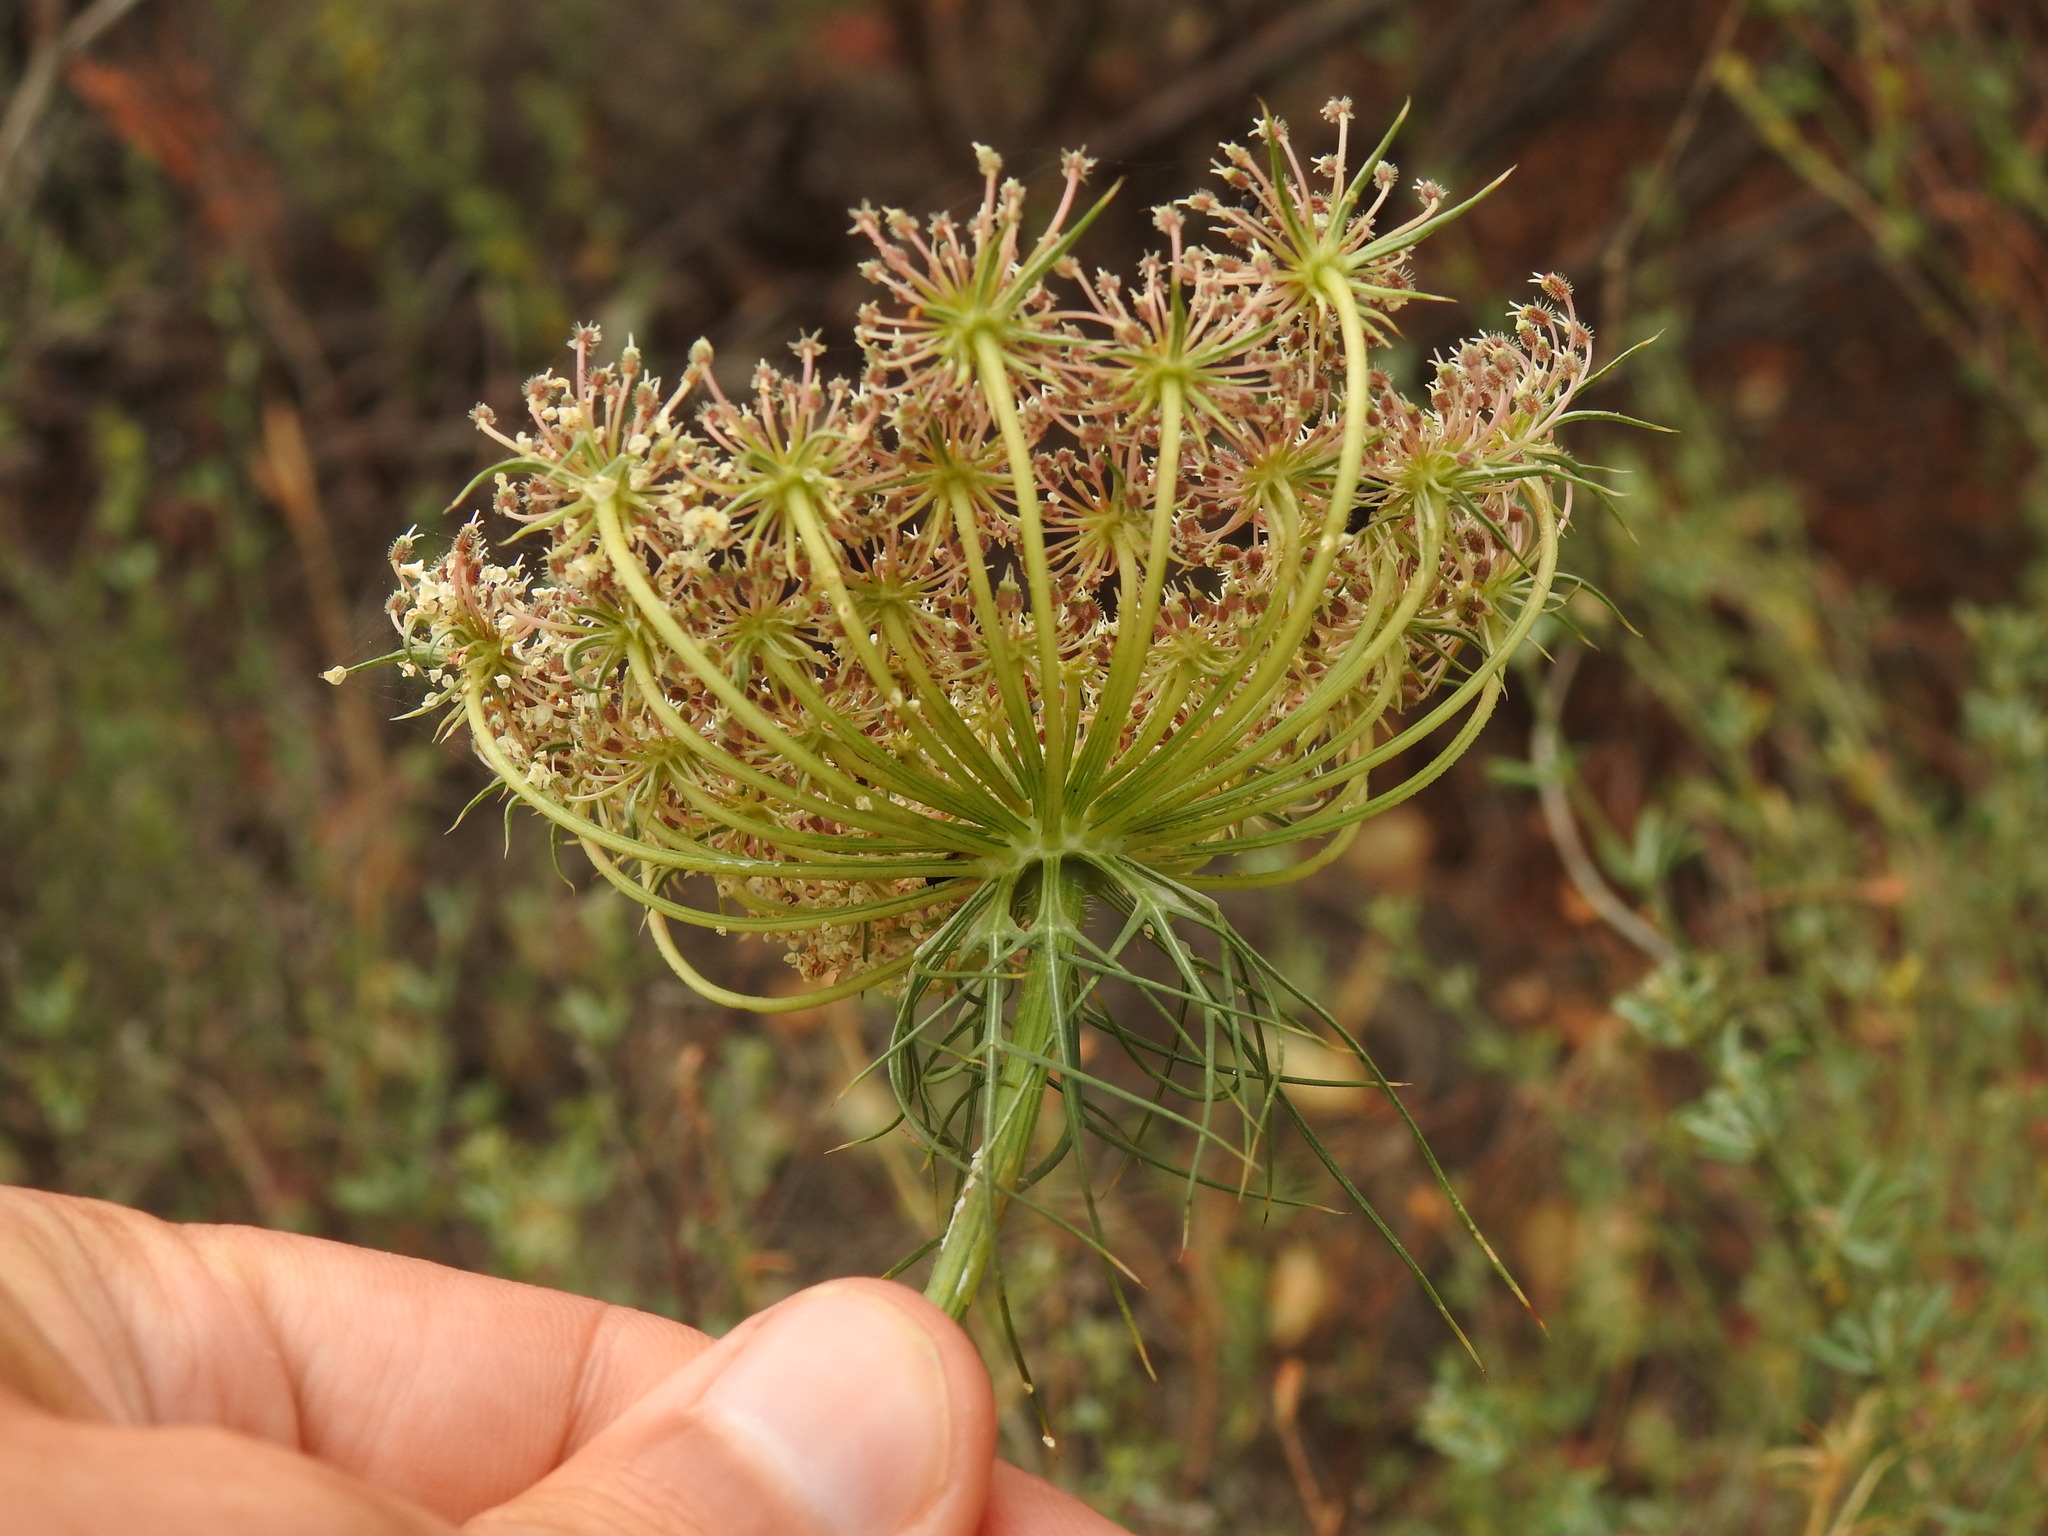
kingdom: Plantae
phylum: Tracheophyta
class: Magnoliopsida
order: Apiales
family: Apiaceae
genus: Daucus
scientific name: Daucus carota
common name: Wild carrot
